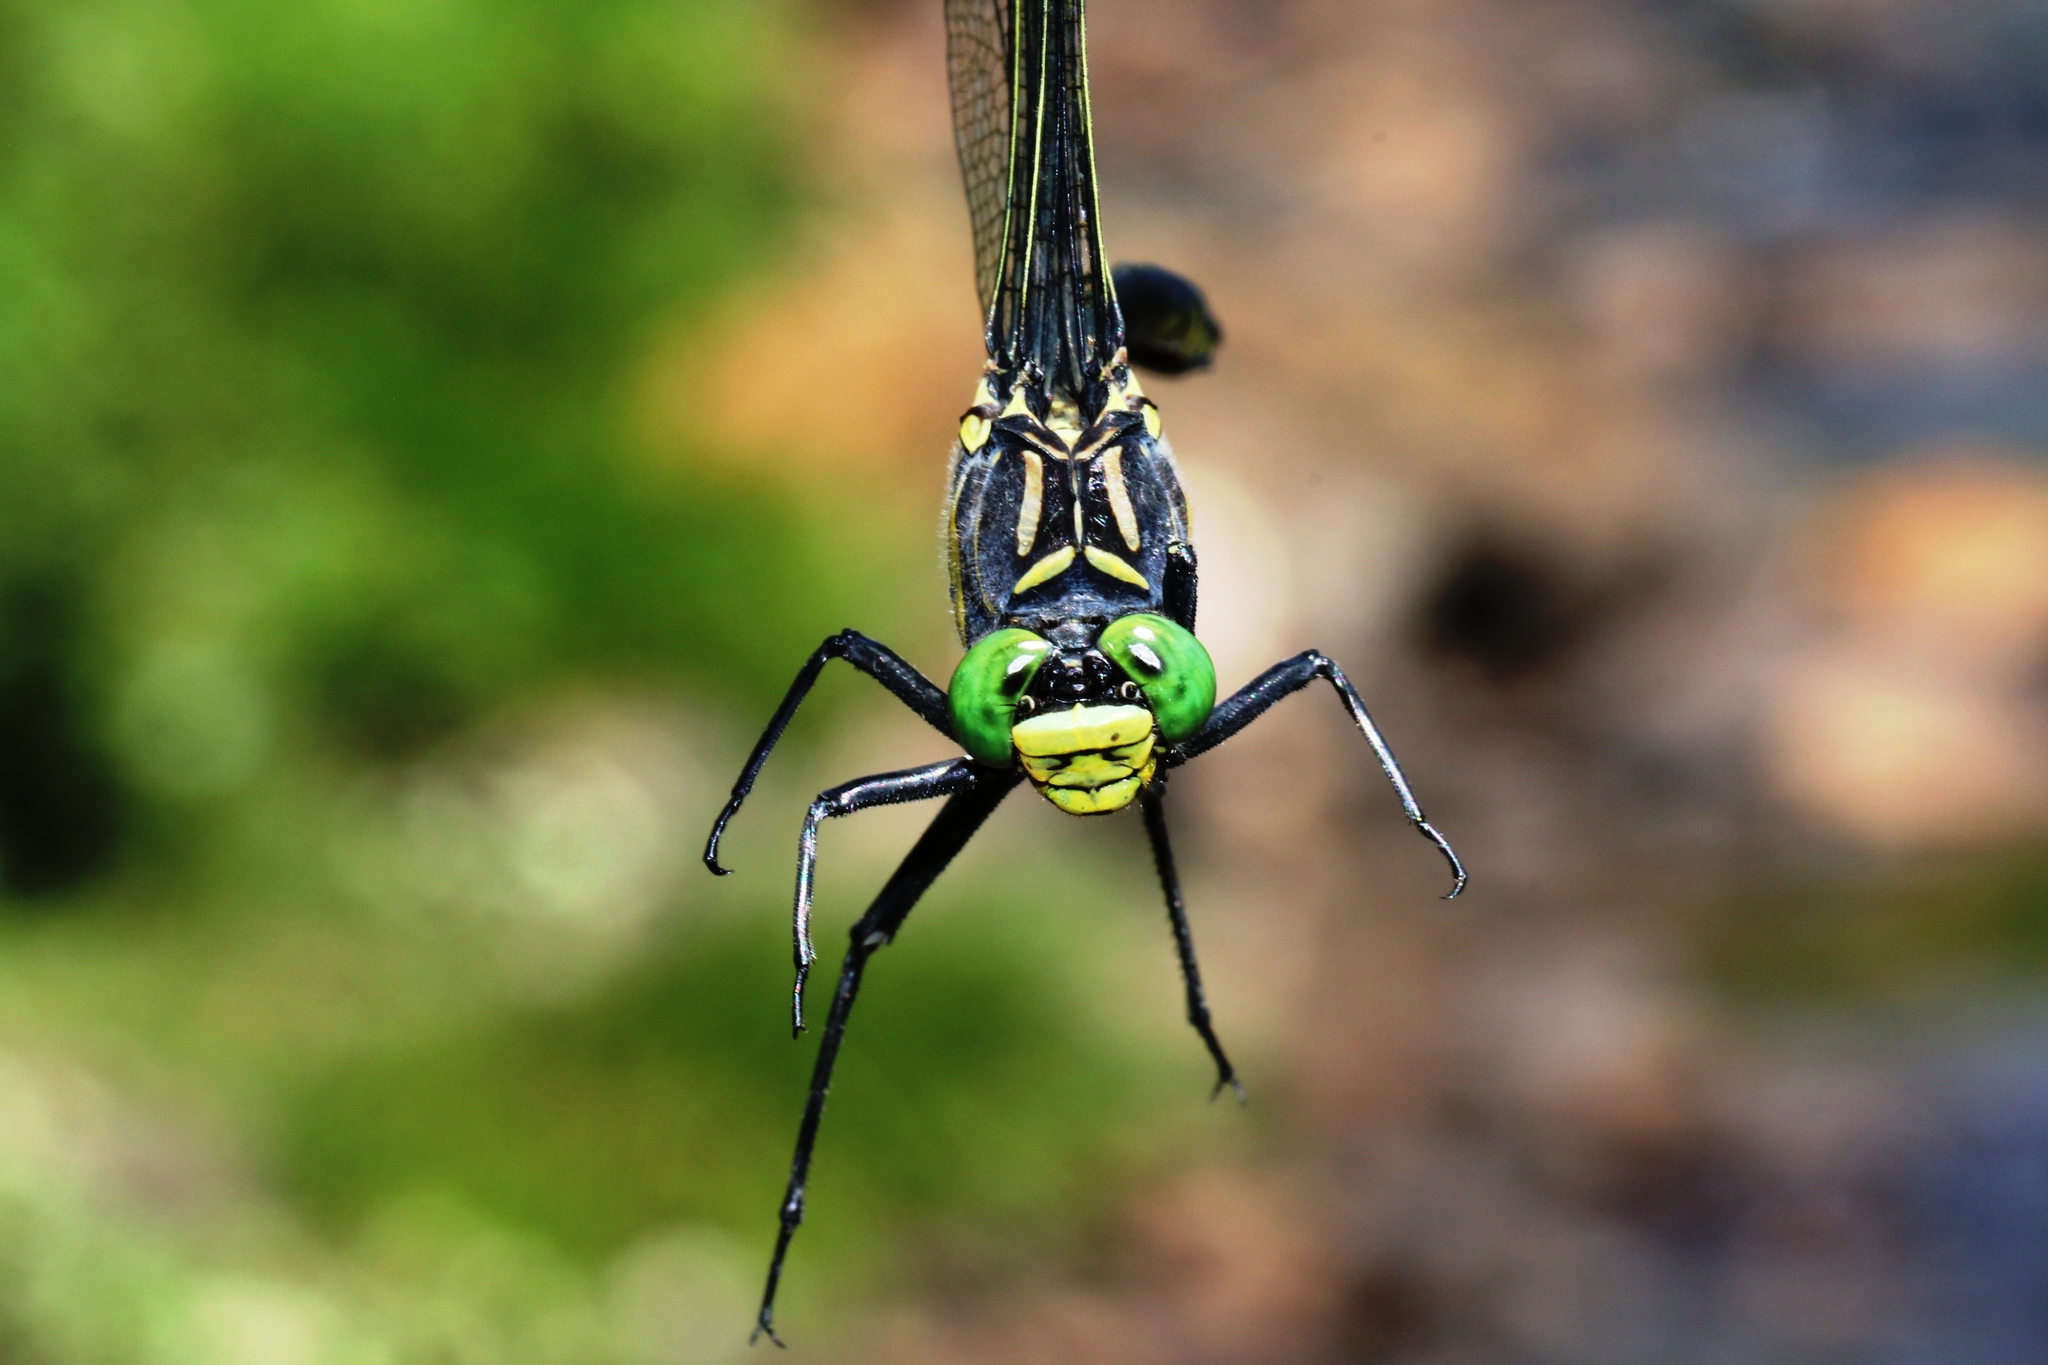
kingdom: Animalia
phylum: Arthropoda
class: Insecta
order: Odonata
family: Gomphidae
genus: Hagenius
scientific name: Hagenius brevistylus
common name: Dragonhunter
